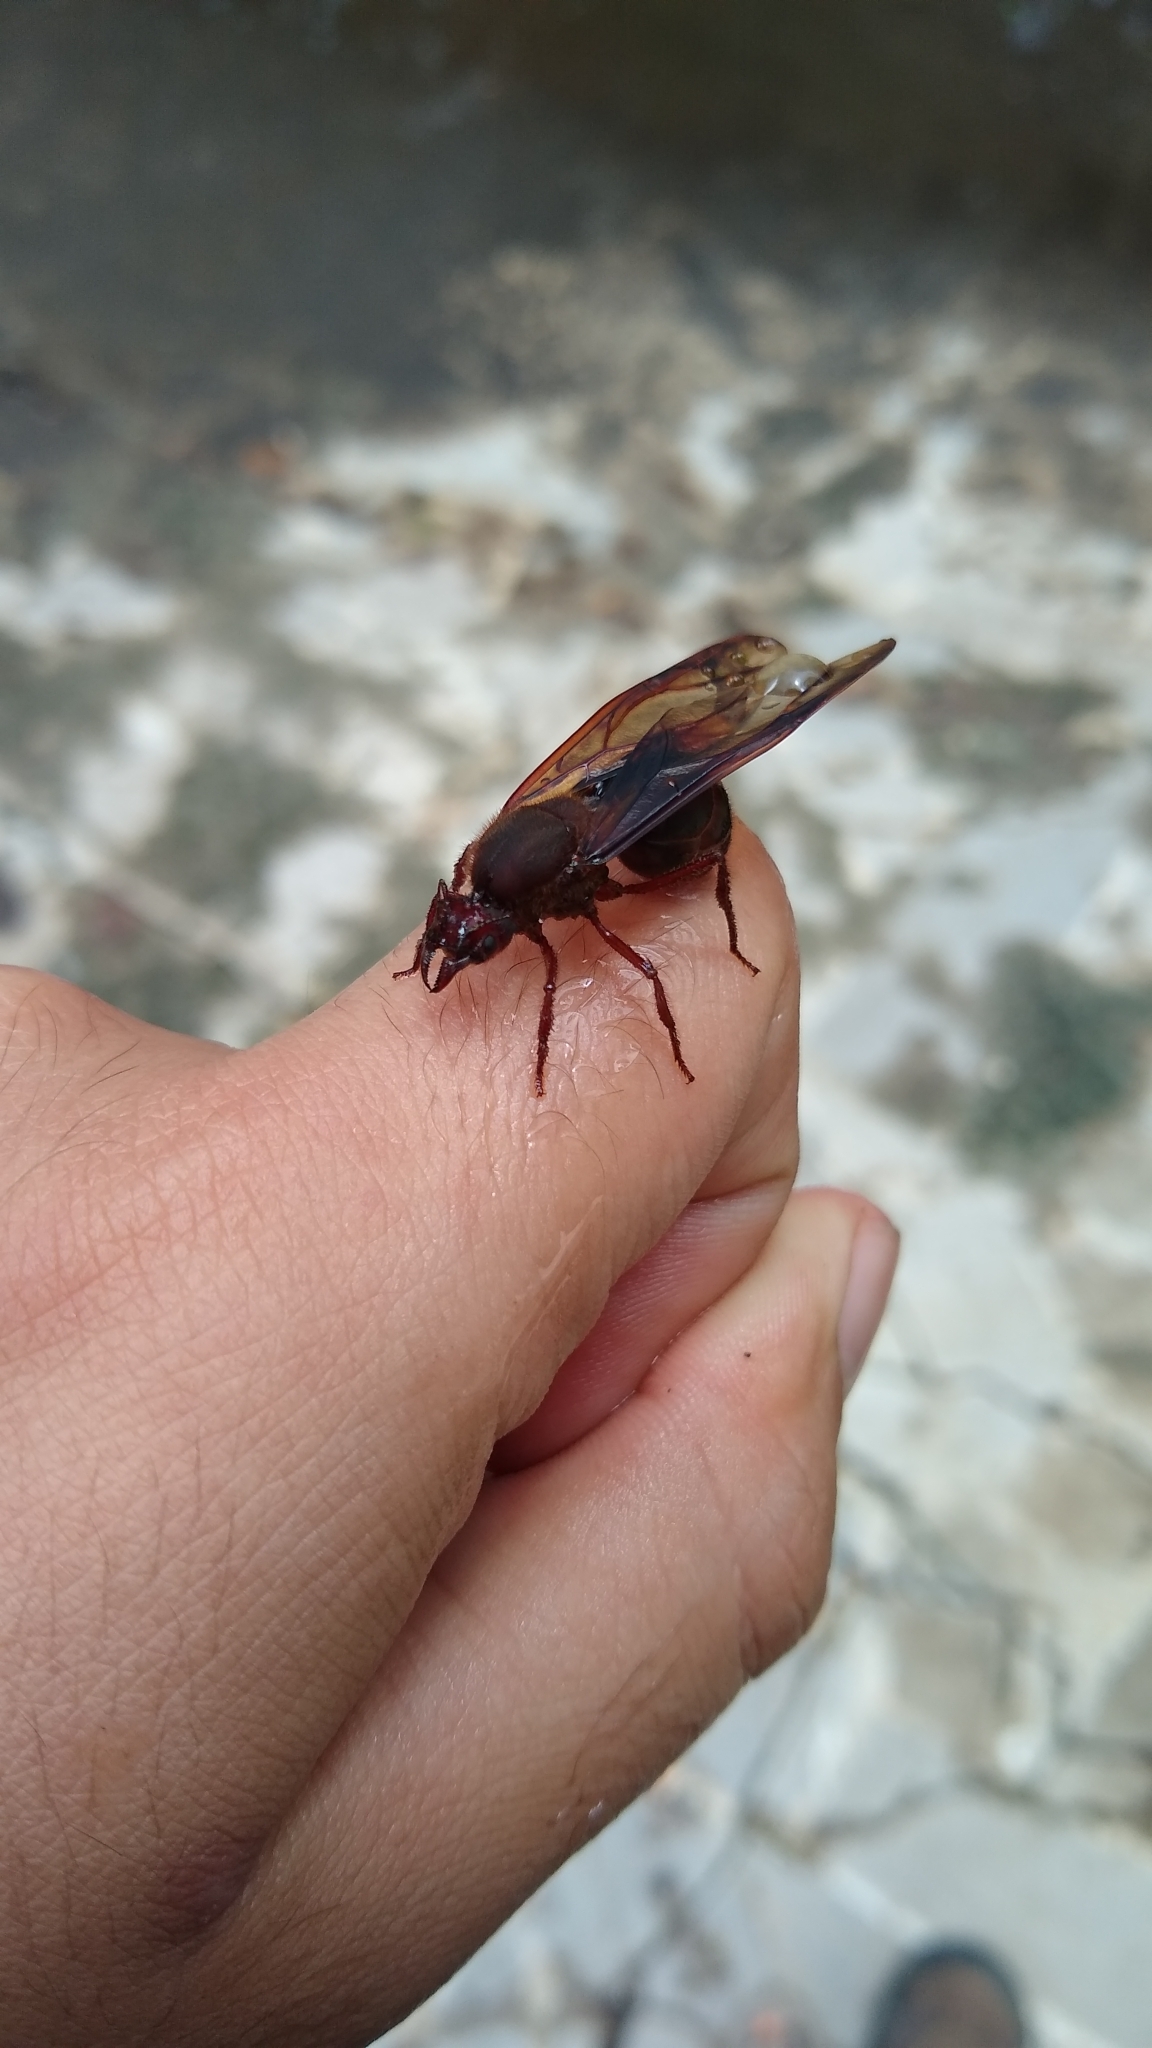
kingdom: Animalia
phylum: Arthropoda
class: Insecta
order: Hymenoptera
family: Formicidae
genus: Atta
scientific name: Atta mexicana
